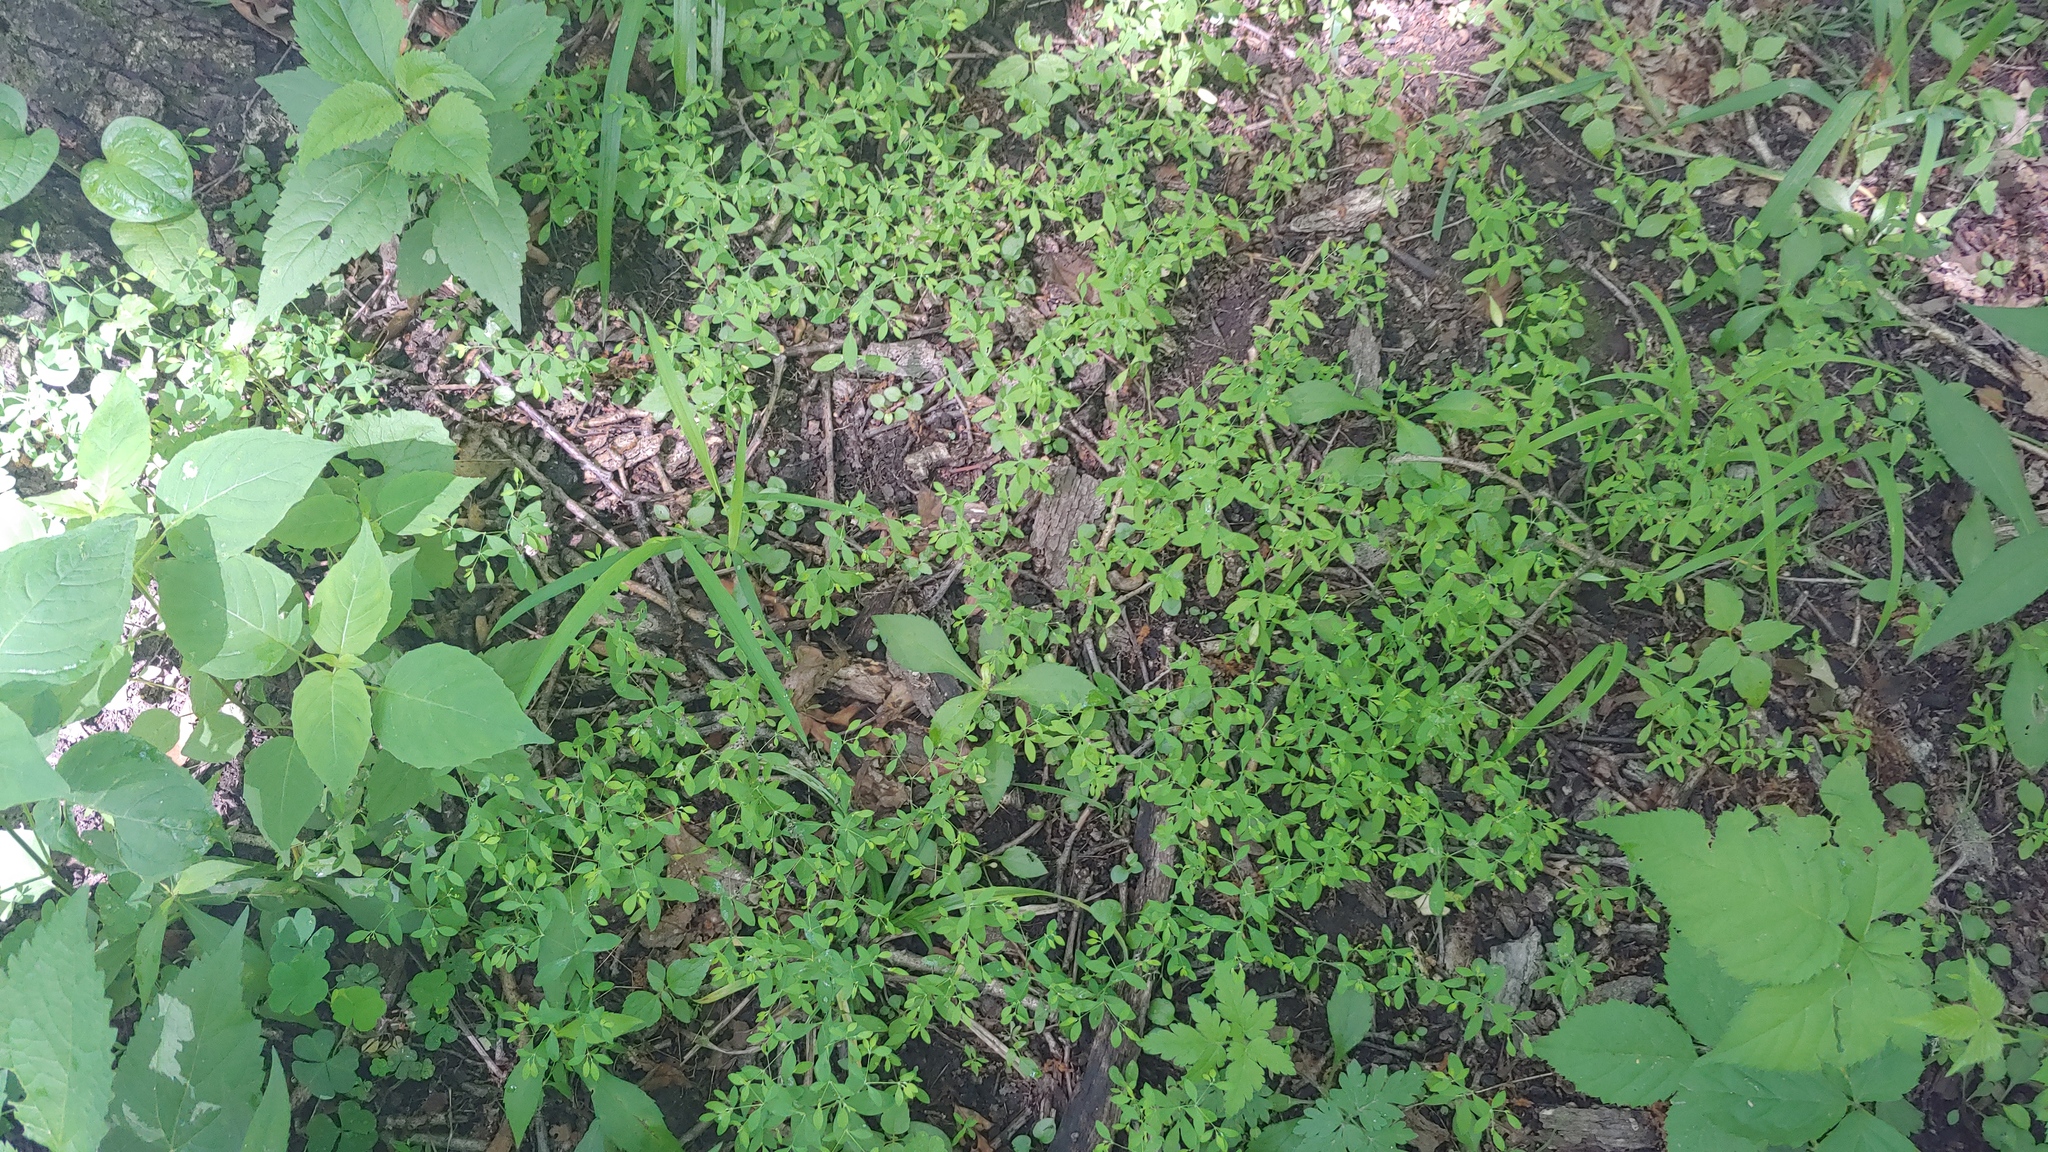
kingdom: Plantae
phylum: Tracheophyta
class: Magnoliopsida
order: Caryophyllales
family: Caryophyllaceae
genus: Paronychia
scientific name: Paronychia canadensis
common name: Canada forked nailwort
